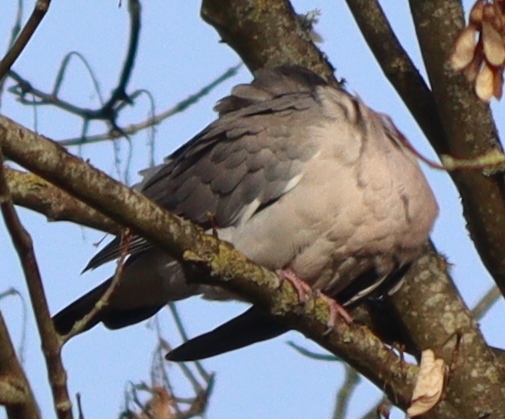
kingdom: Animalia
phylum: Chordata
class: Aves
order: Columbiformes
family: Columbidae
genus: Columba
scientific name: Columba palumbus
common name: Common wood pigeon
